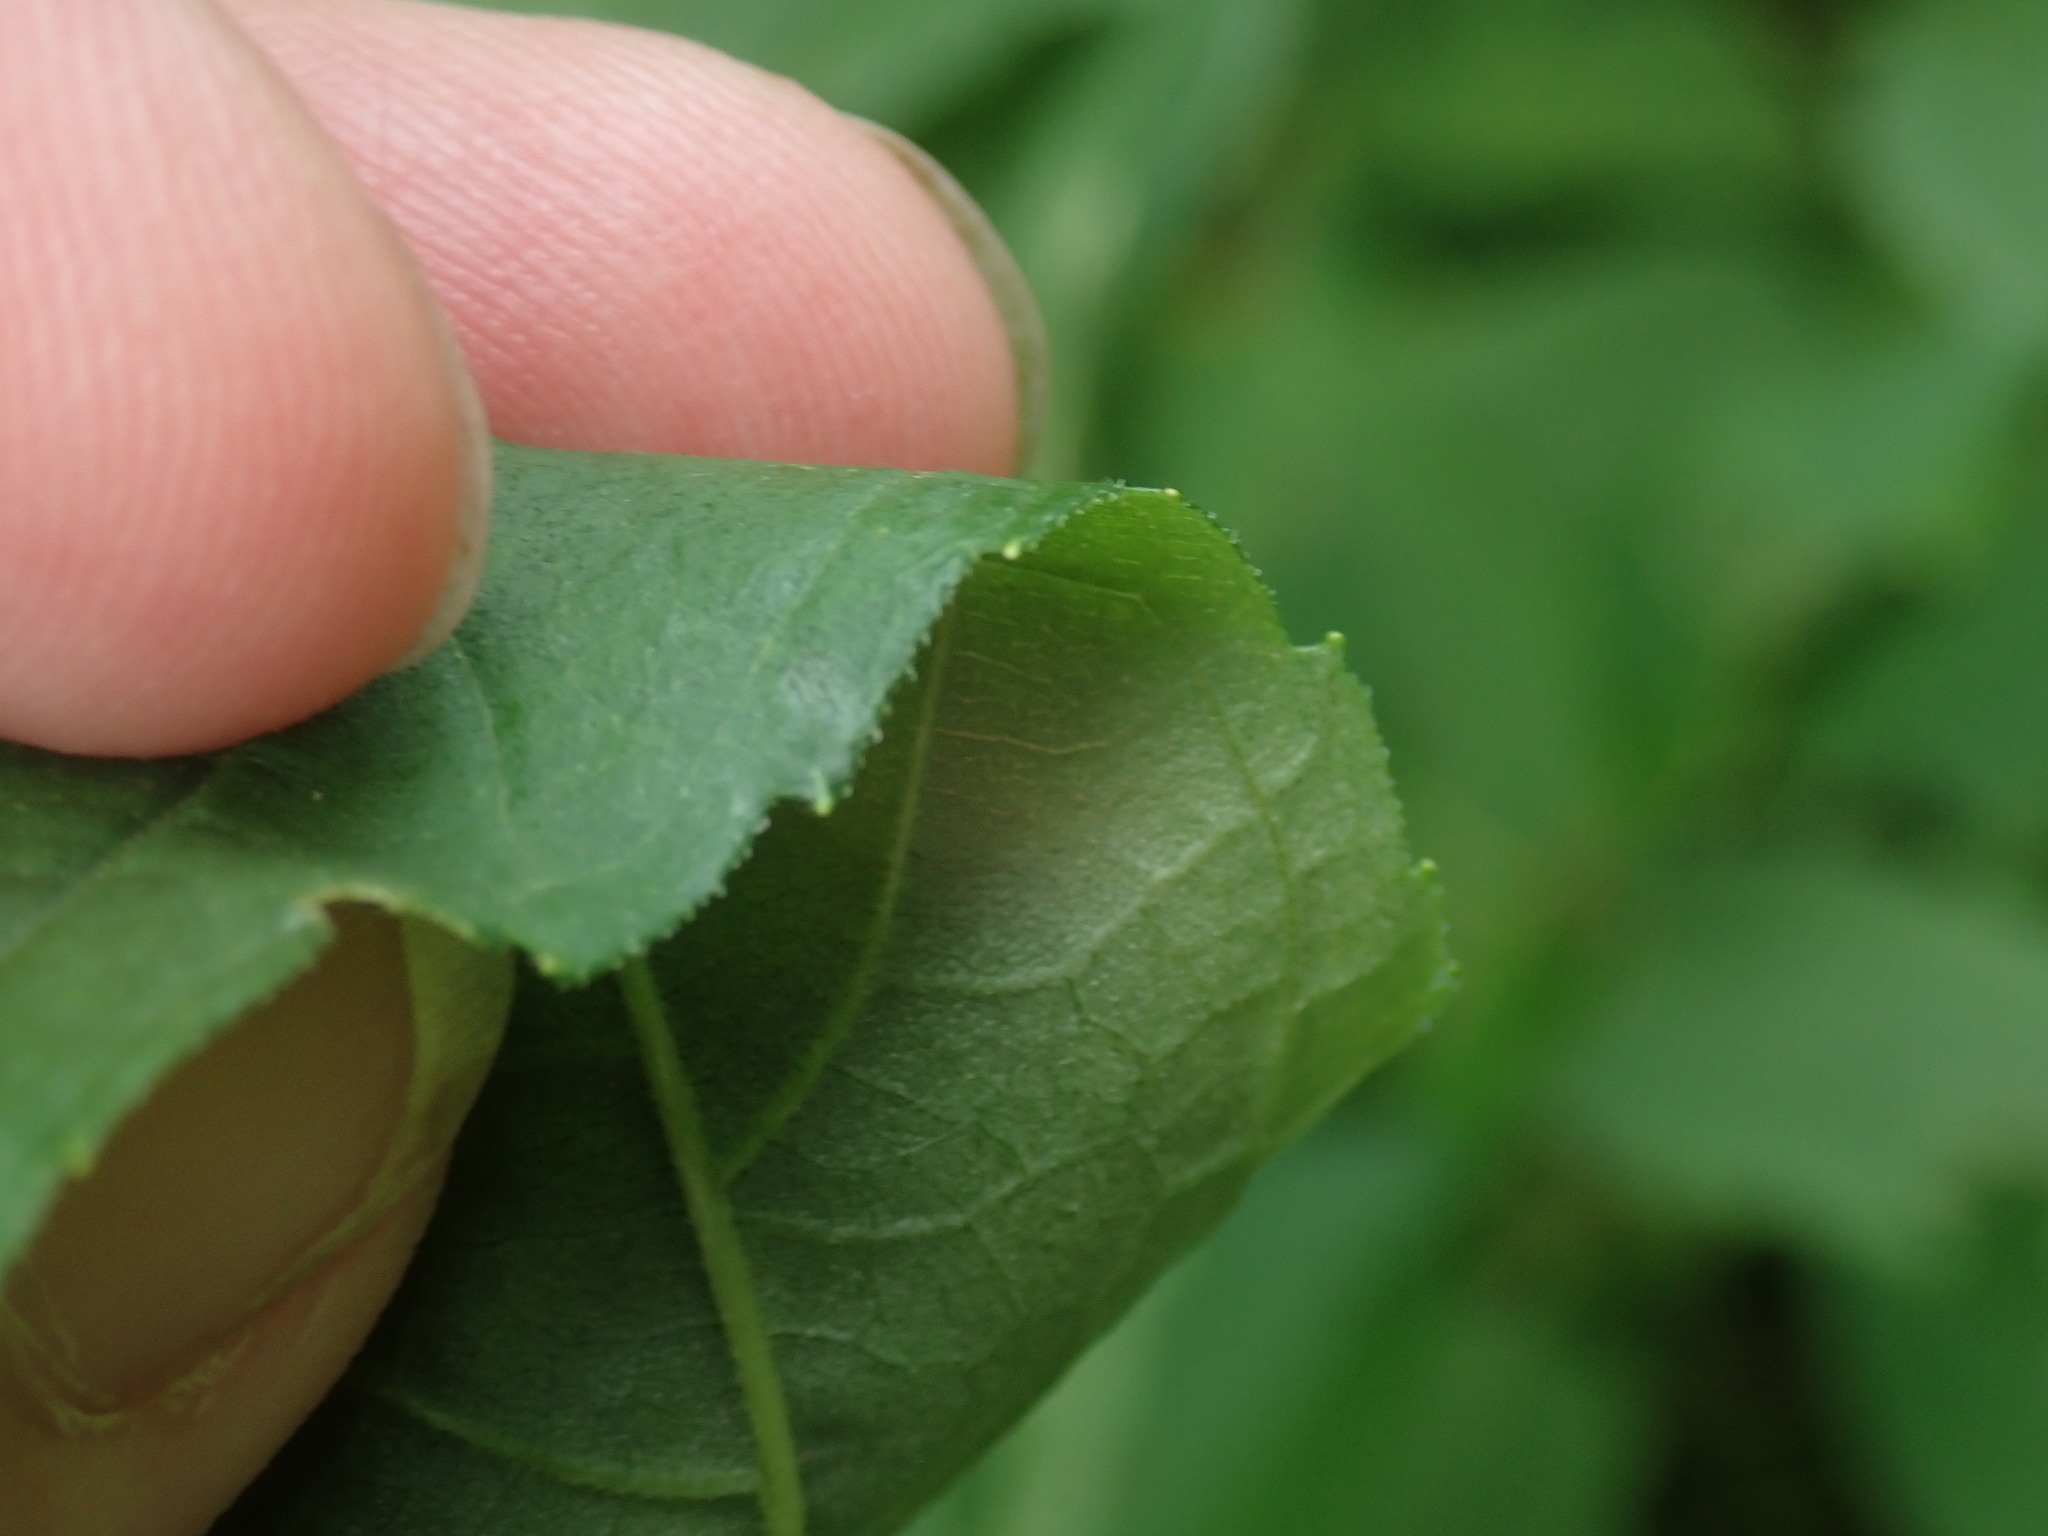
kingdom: Plantae
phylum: Tracheophyta
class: Magnoliopsida
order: Asterales
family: Asteraceae
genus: Helianthus
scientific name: Helianthus decapetalus
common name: Thin-leaved sunflower
